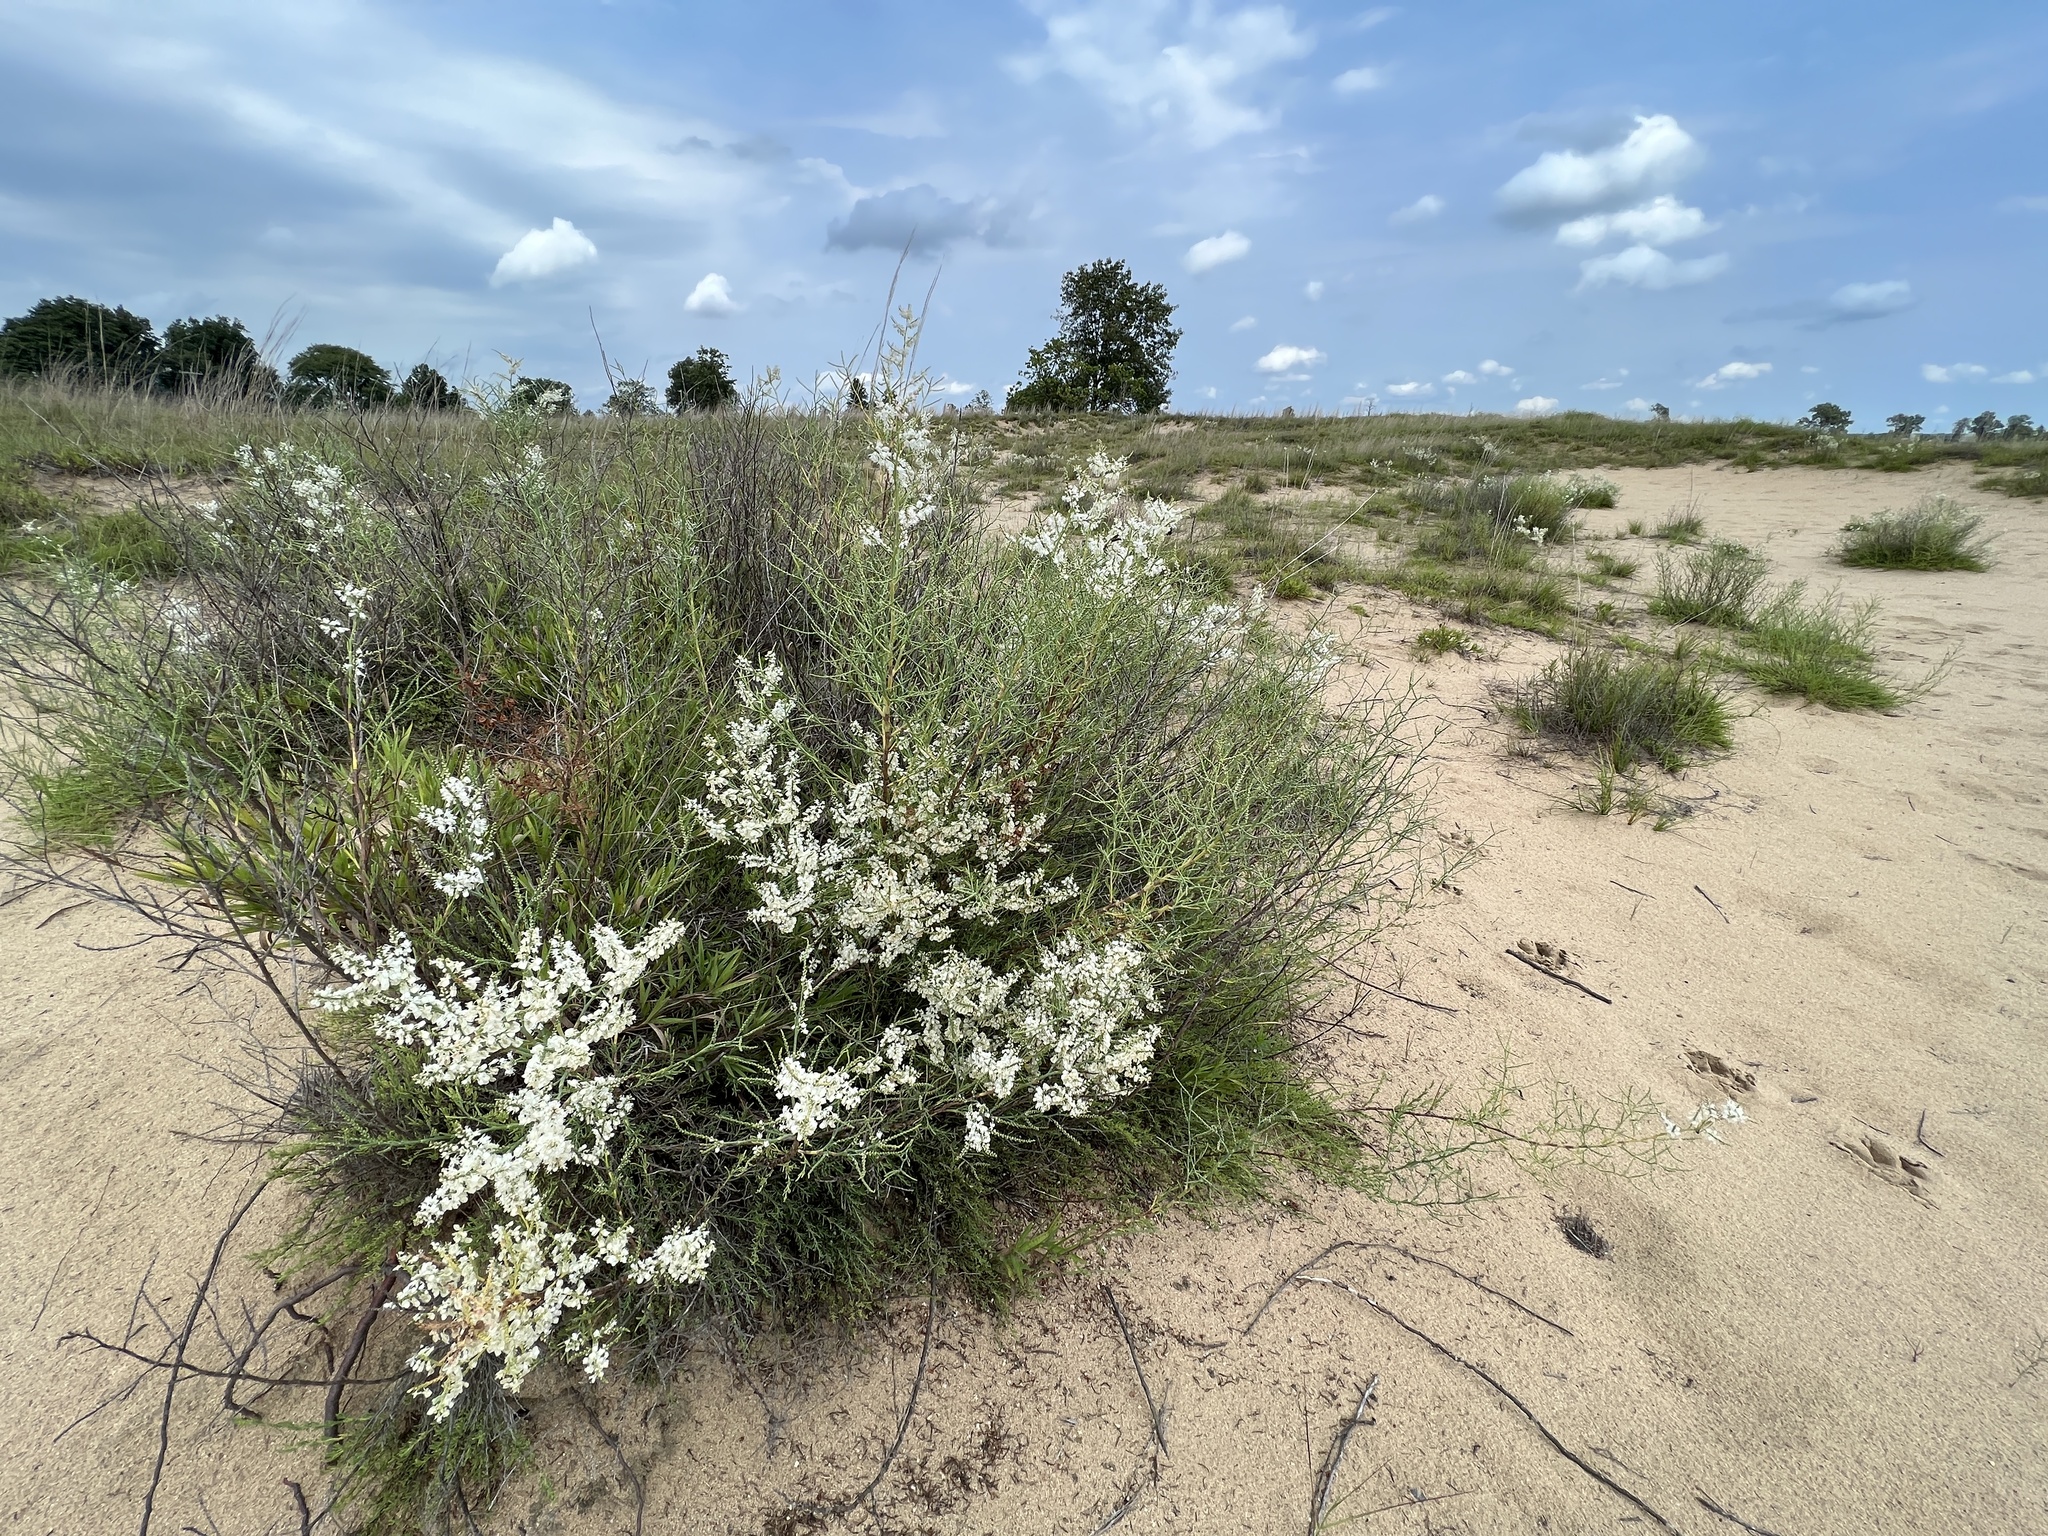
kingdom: Plantae
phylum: Tracheophyta
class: Magnoliopsida
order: Caryophyllales
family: Polygonaceae
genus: Polygonella
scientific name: Polygonella americana
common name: Southern jointweed
